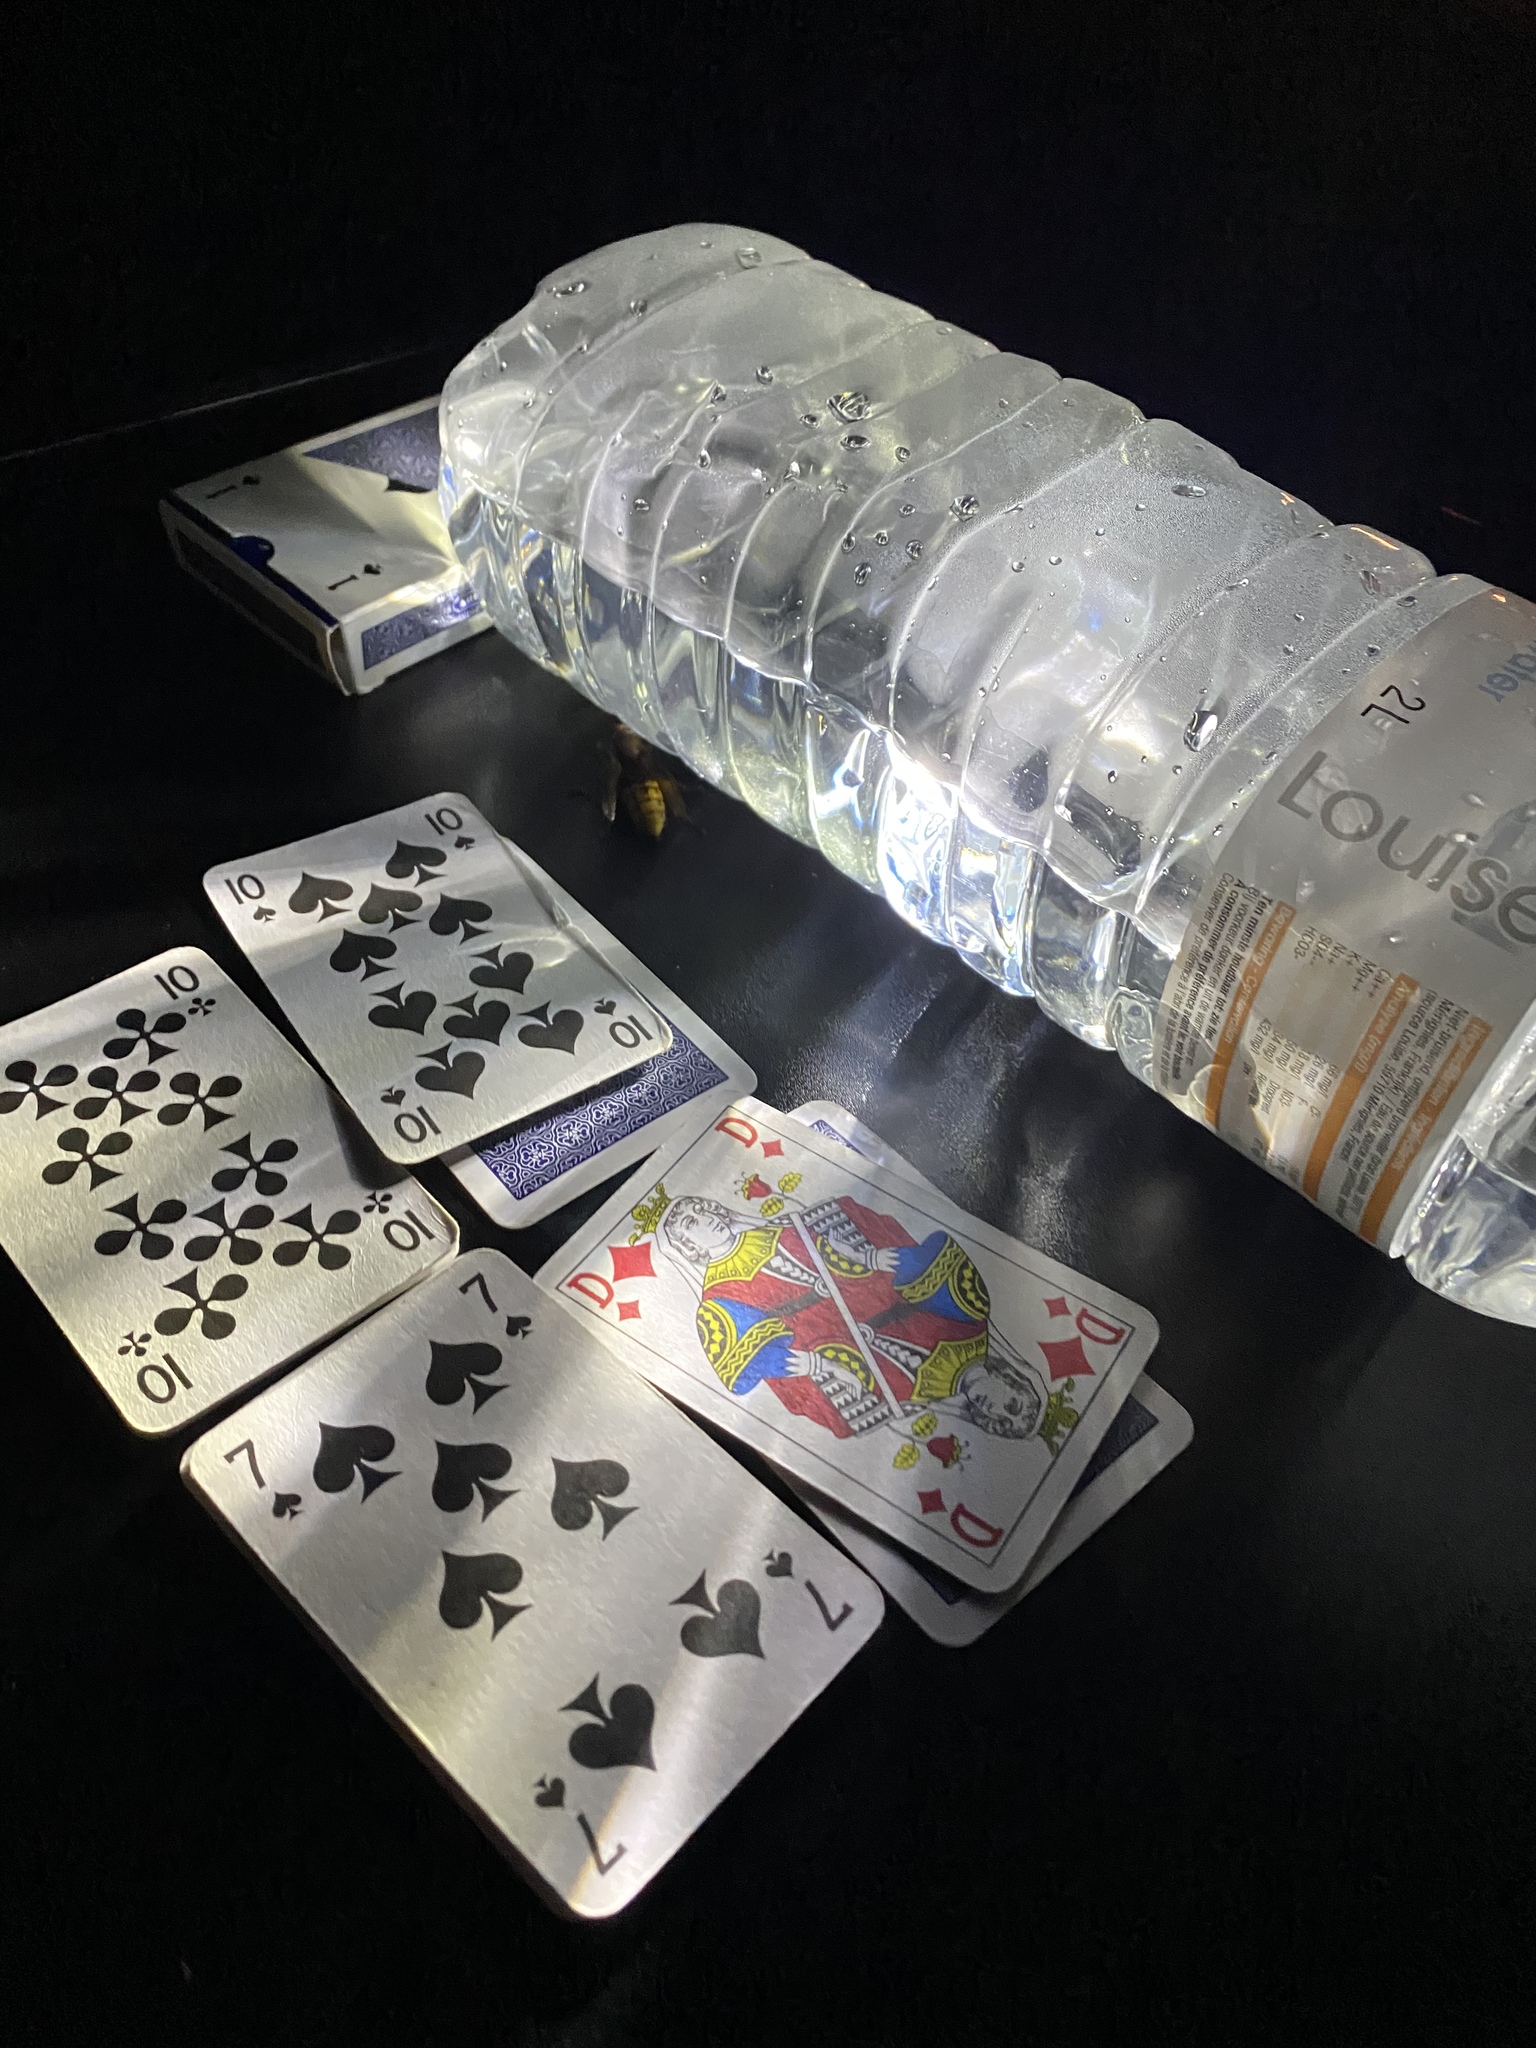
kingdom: Animalia
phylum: Arthropoda
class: Insecta
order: Hymenoptera
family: Vespidae
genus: Vespa
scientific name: Vespa crabro
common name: Hornet
